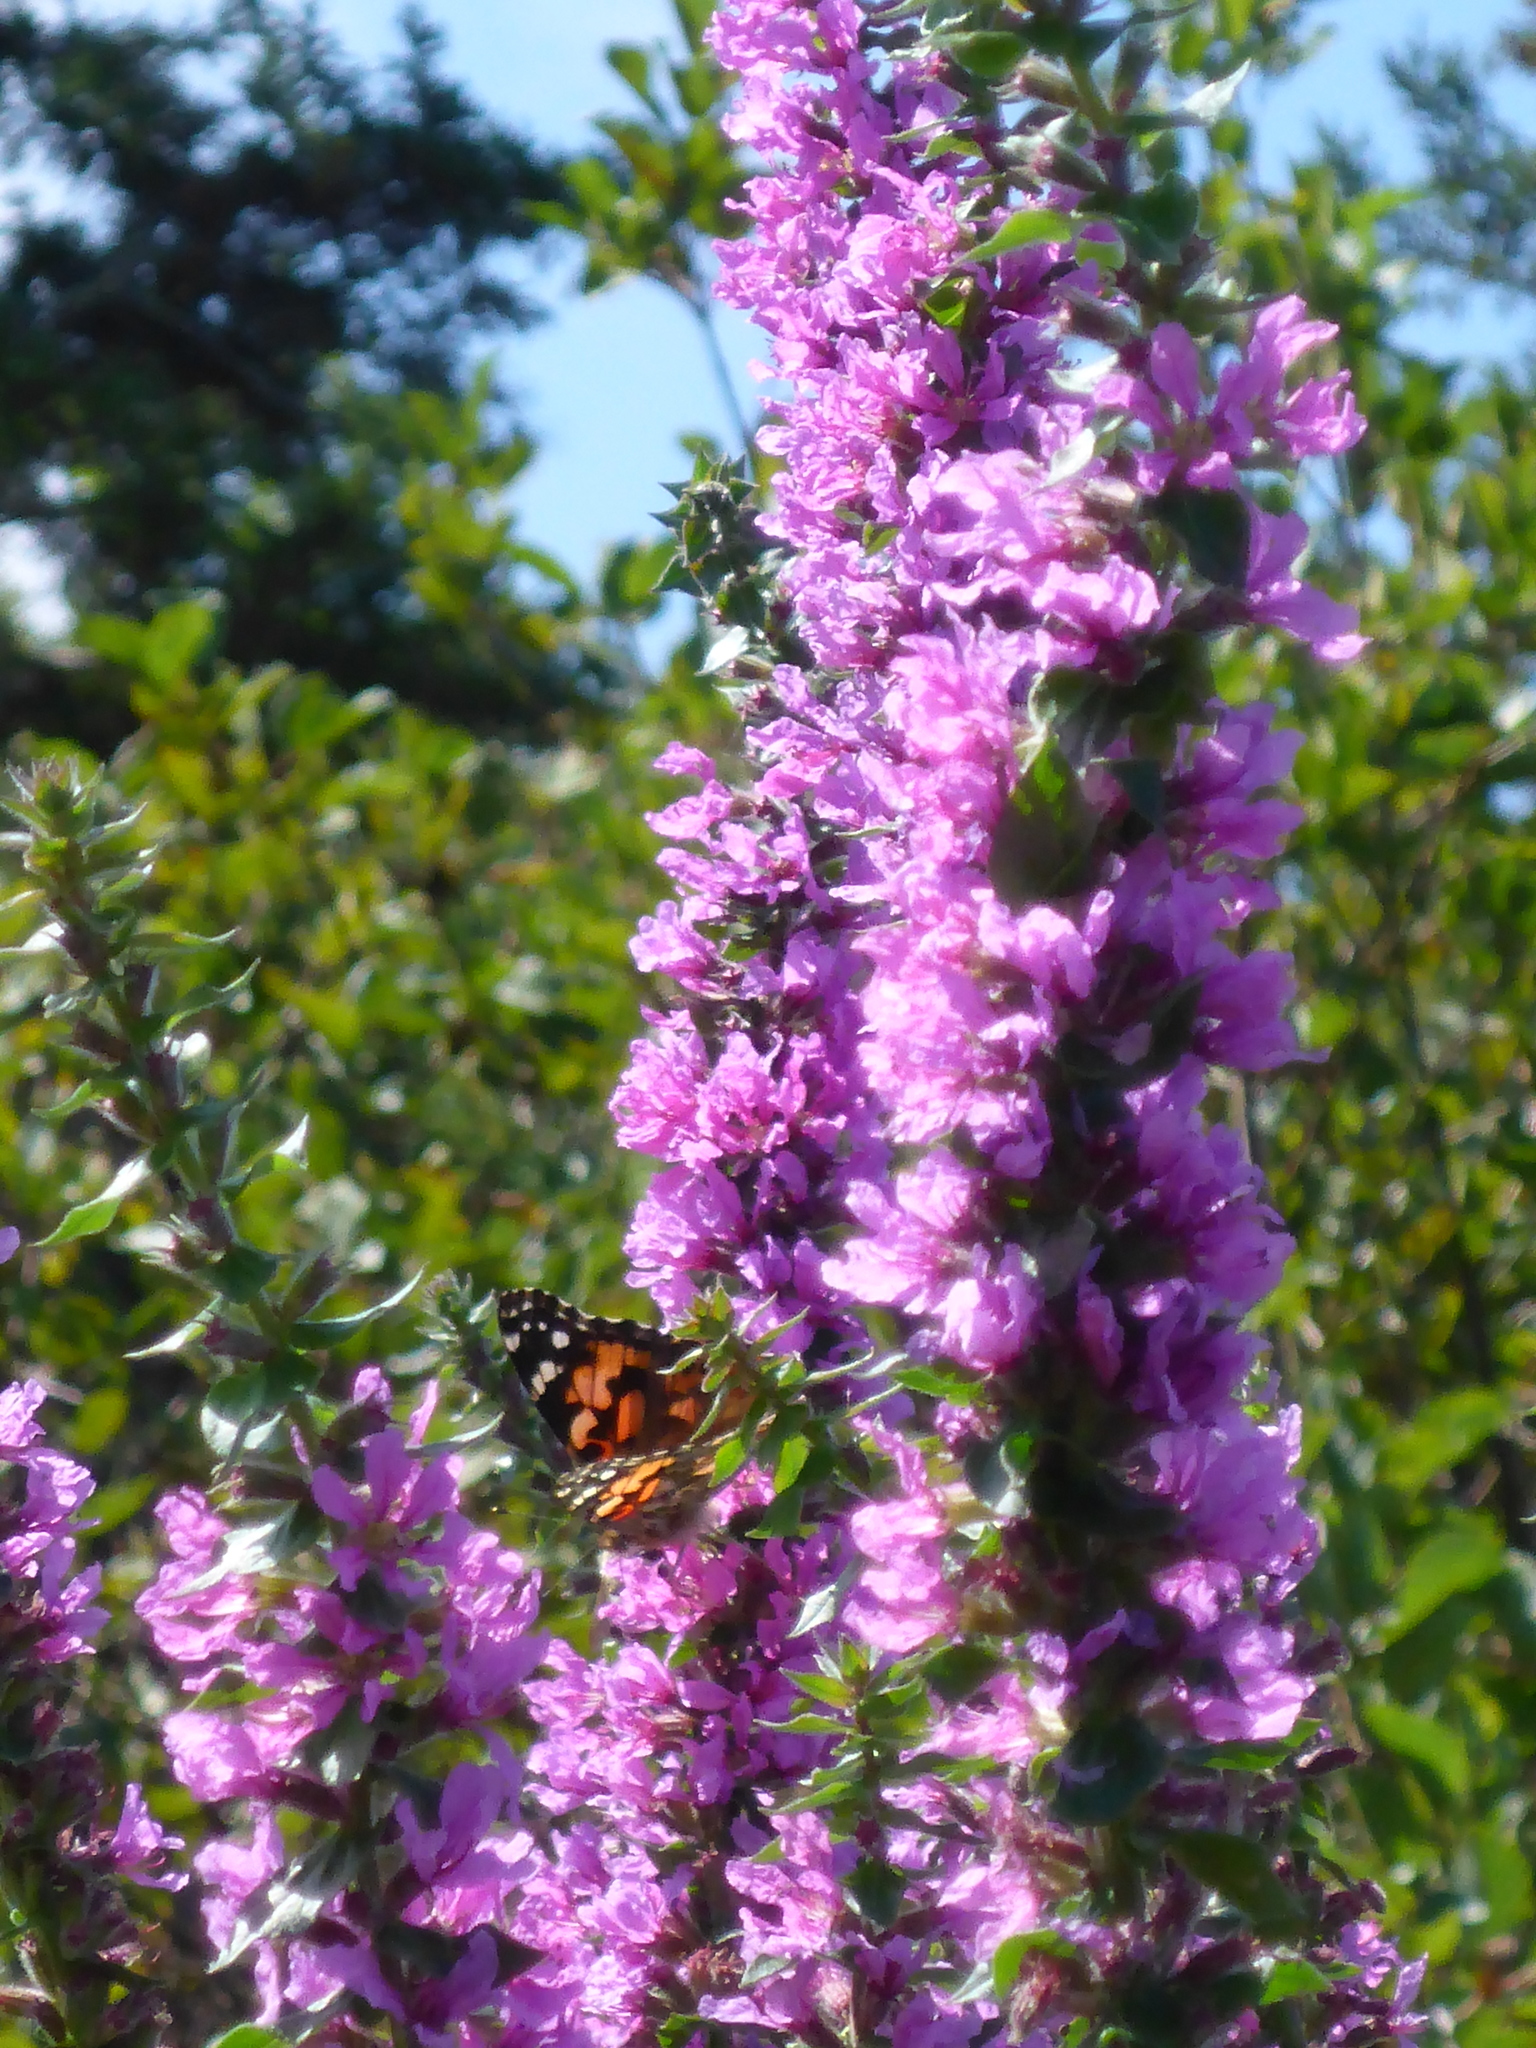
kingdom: Animalia
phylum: Arthropoda
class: Insecta
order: Lepidoptera
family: Nymphalidae
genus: Vanessa
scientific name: Vanessa cardui
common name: Painted lady
